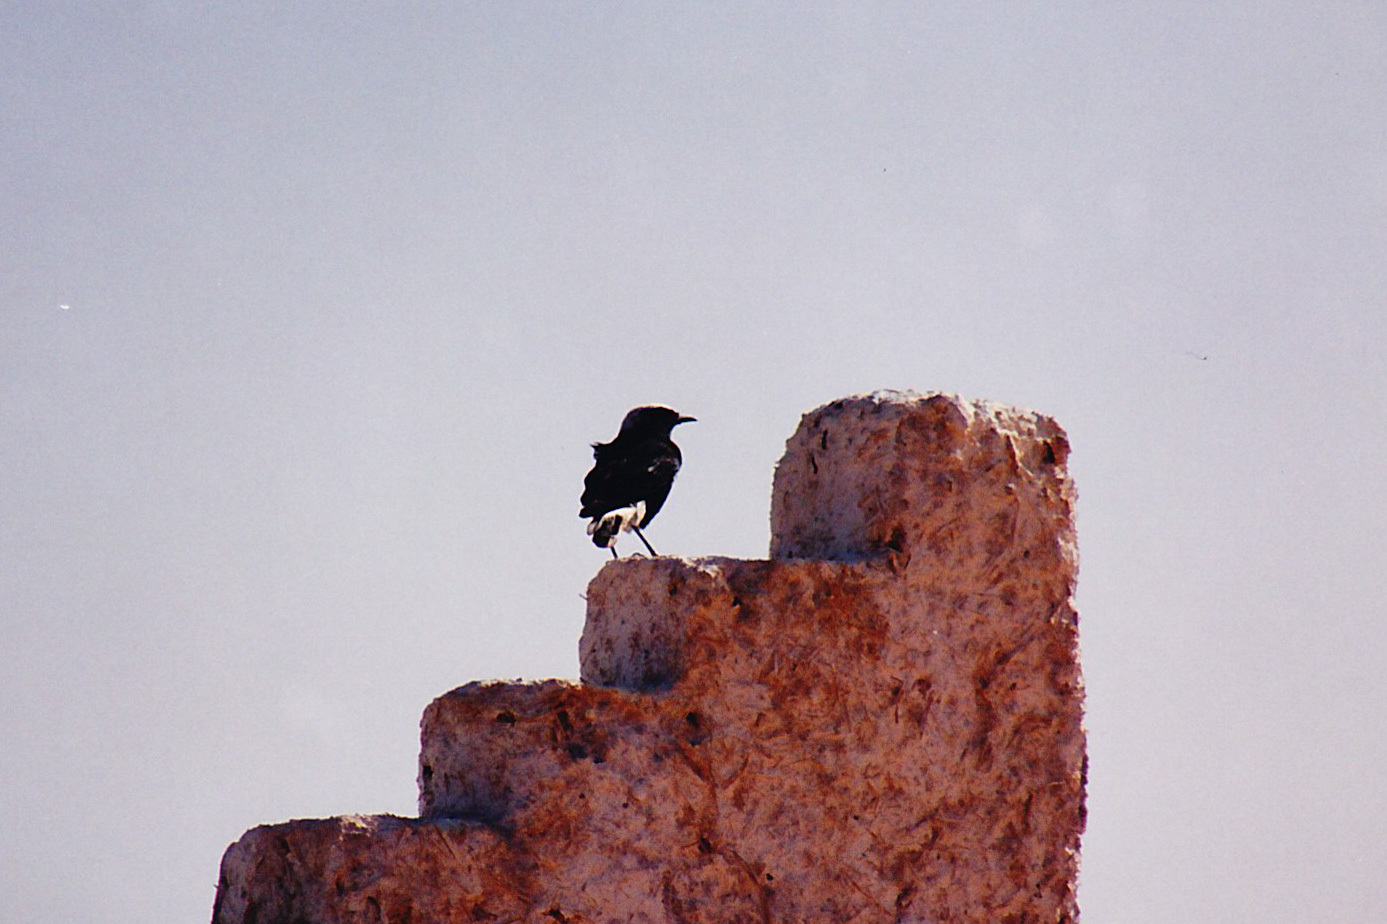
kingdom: Animalia
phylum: Chordata
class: Aves
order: Passeriformes
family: Muscicapidae
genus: Oenanthe
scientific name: Oenanthe leucopyga
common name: White-crowned wheatear
